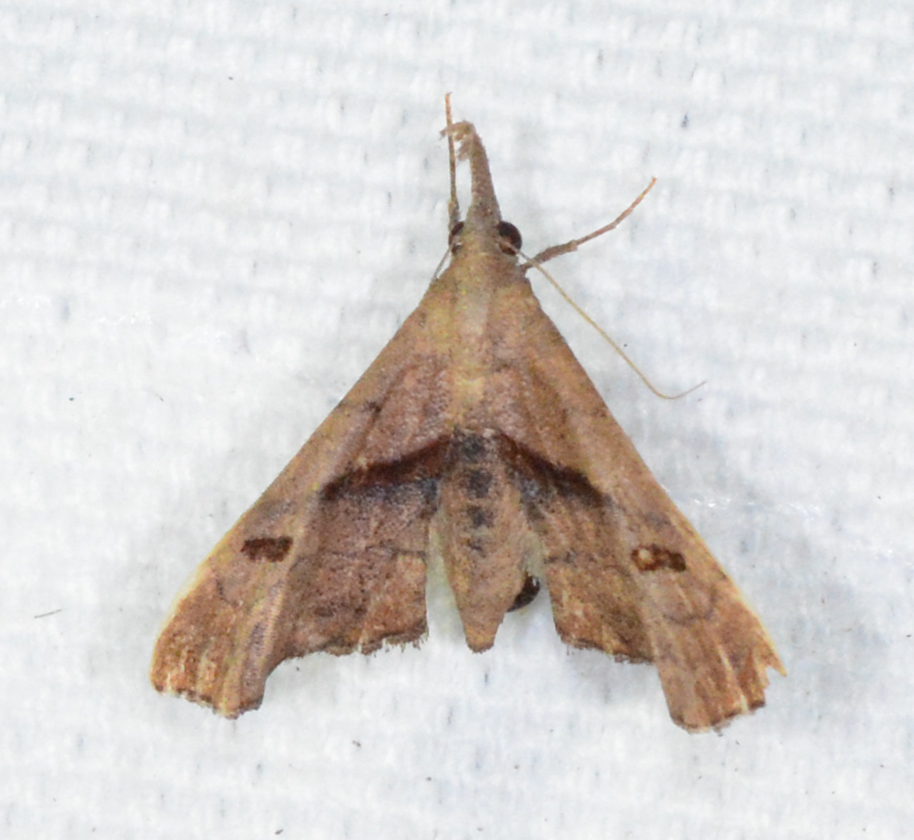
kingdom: Animalia
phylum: Arthropoda
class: Insecta
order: Lepidoptera
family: Erebidae
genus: Palthis
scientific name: Palthis angulalis
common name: Dark-spotted palthis moth
